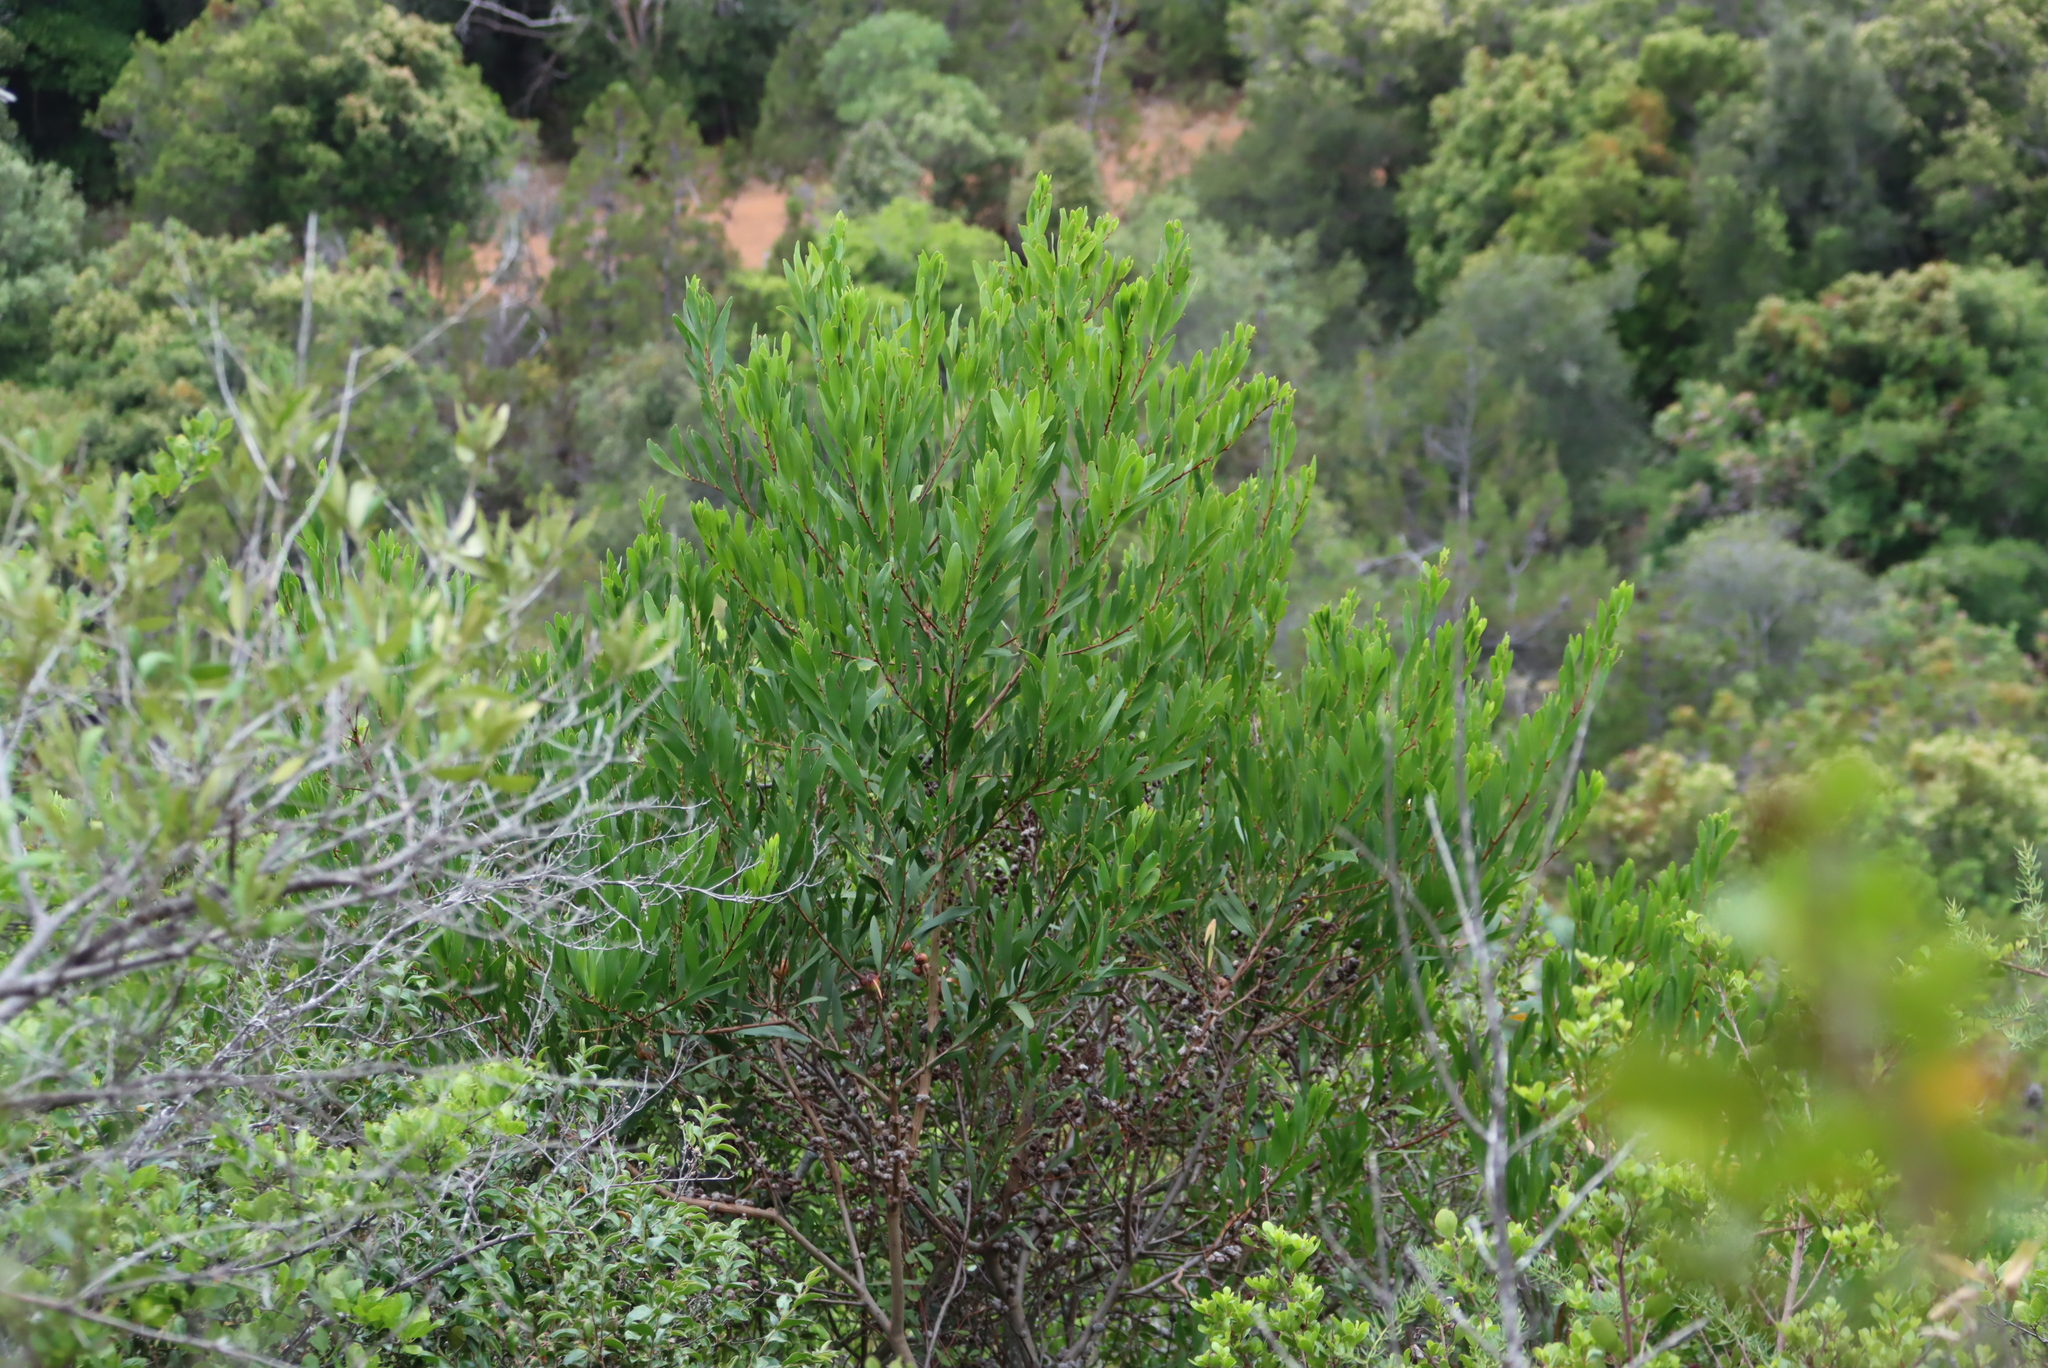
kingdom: Plantae
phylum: Tracheophyta
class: Magnoliopsida
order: Fabales
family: Fabaceae
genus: Acacia
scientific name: Acacia longifolia
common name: Sydney golden wattle
